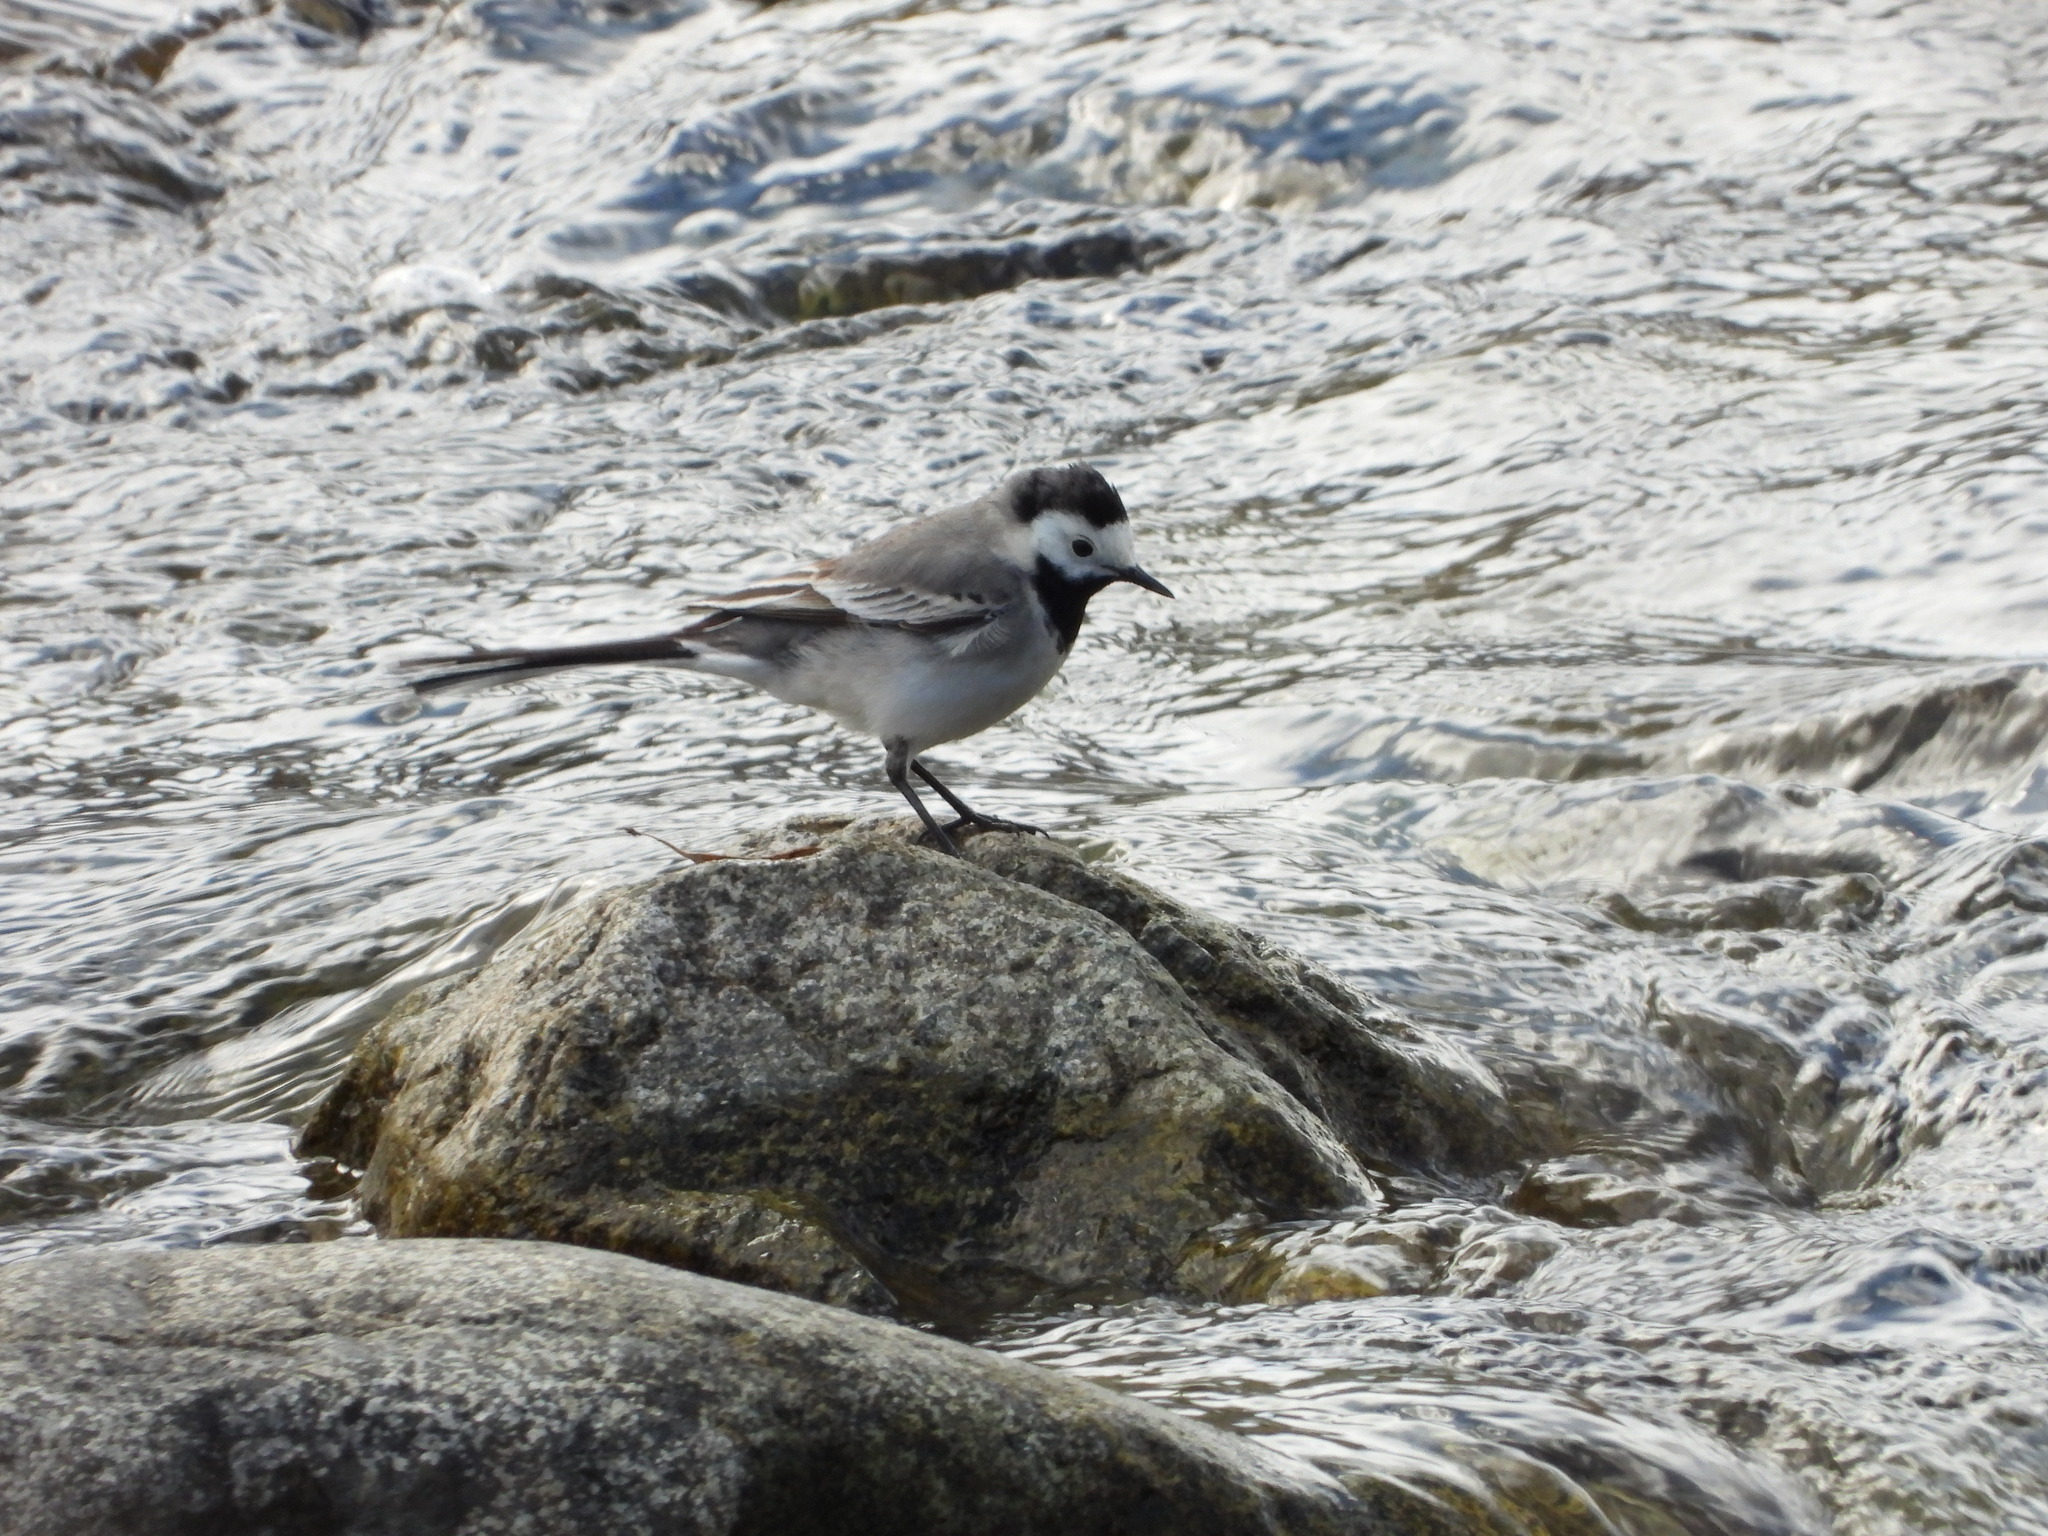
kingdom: Animalia
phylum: Chordata
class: Aves
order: Passeriformes
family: Motacillidae
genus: Motacilla
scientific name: Motacilla alba
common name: White wagtail
